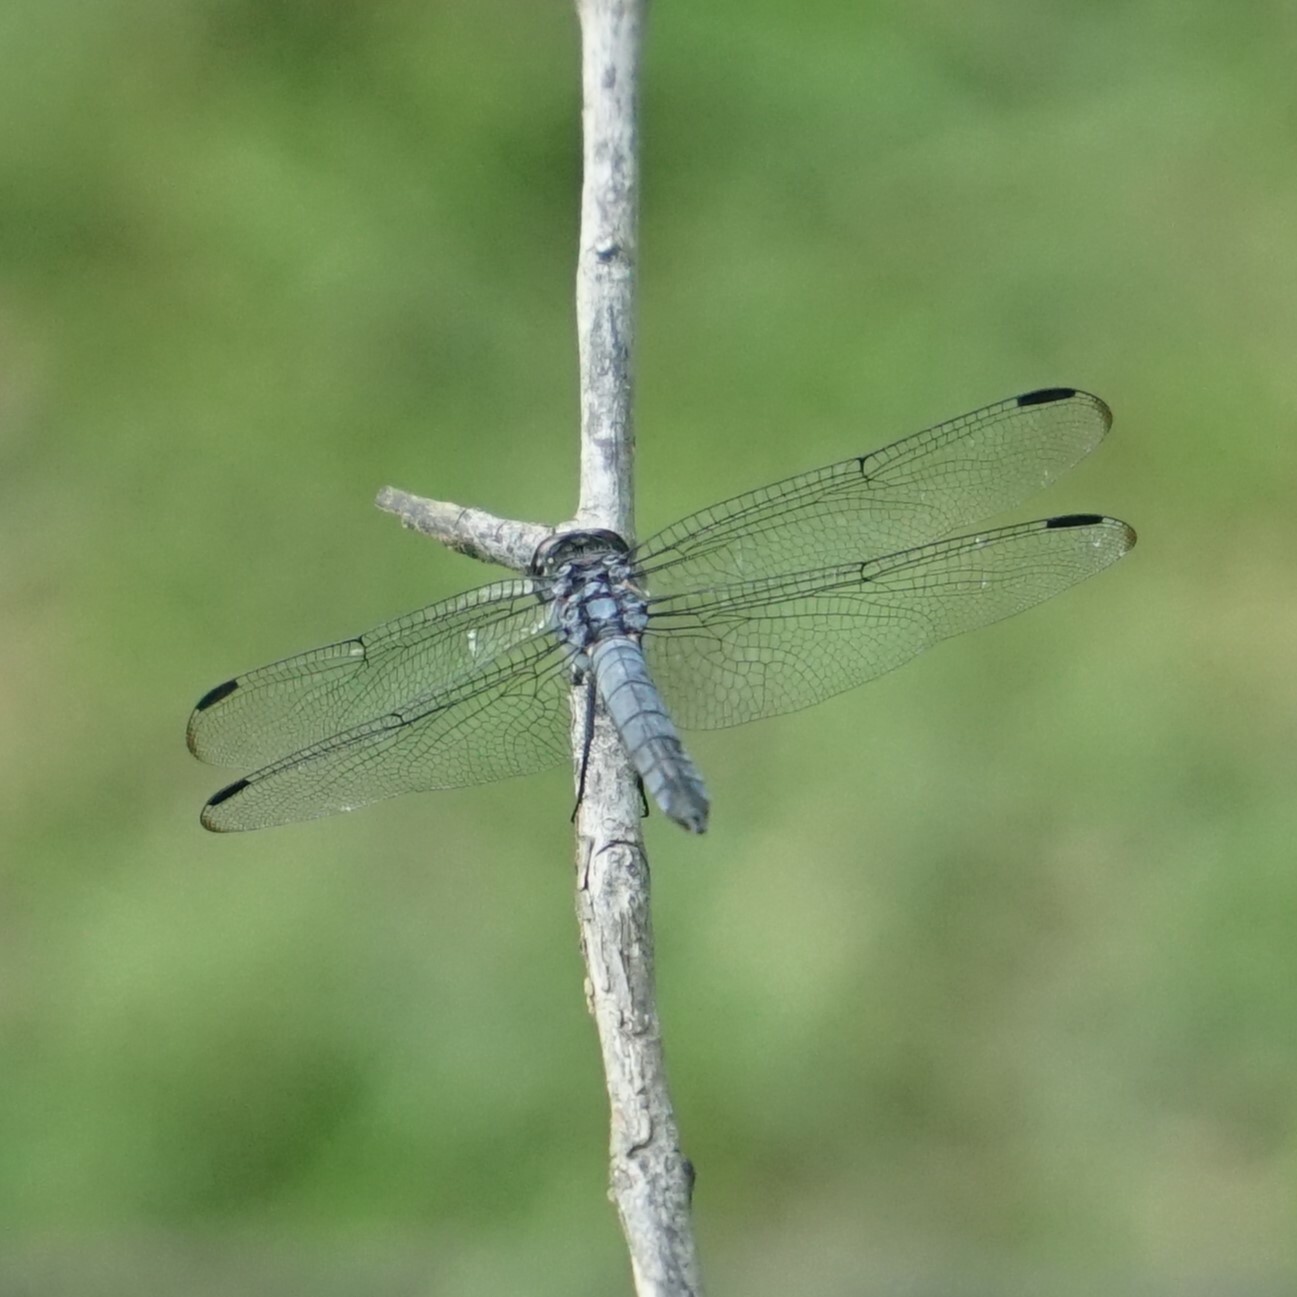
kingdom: Animalia
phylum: Arthropoda
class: Insecta
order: Odonata
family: Libellulidae
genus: Potamarcha
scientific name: Potamarcha congener
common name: Blue chaser
